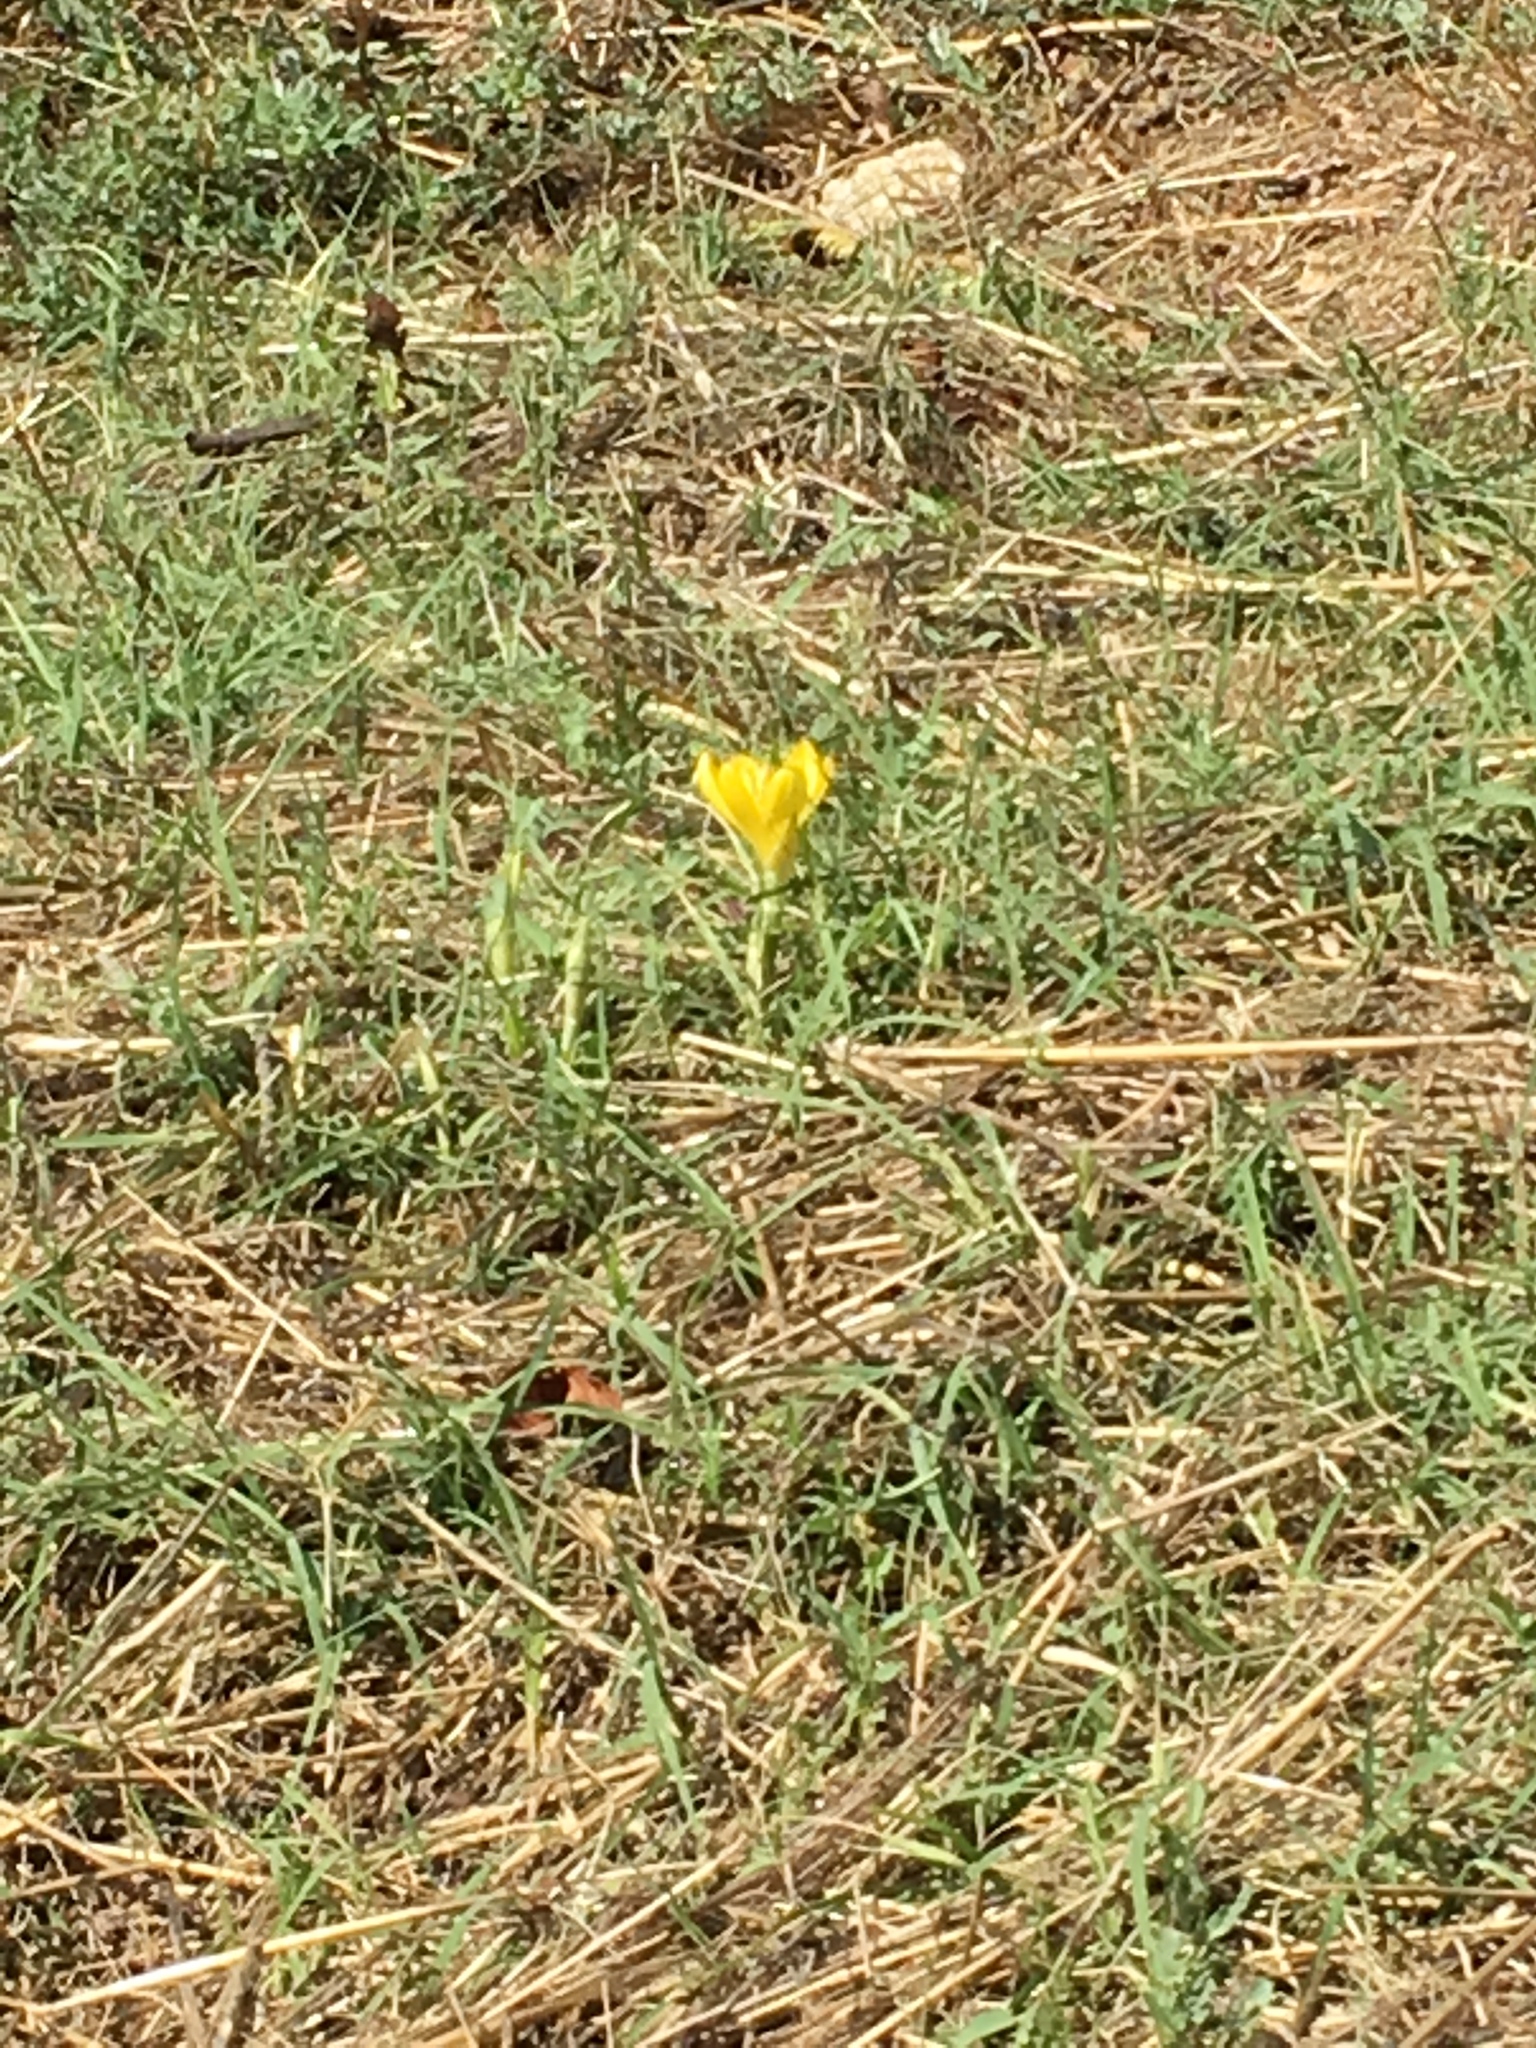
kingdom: Plantae
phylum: Tracheophyta
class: Liliopsida
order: Asparagales
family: Amaryllidaceae
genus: Sternbergia
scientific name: Sternbergia lutea
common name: Winter daffodil
